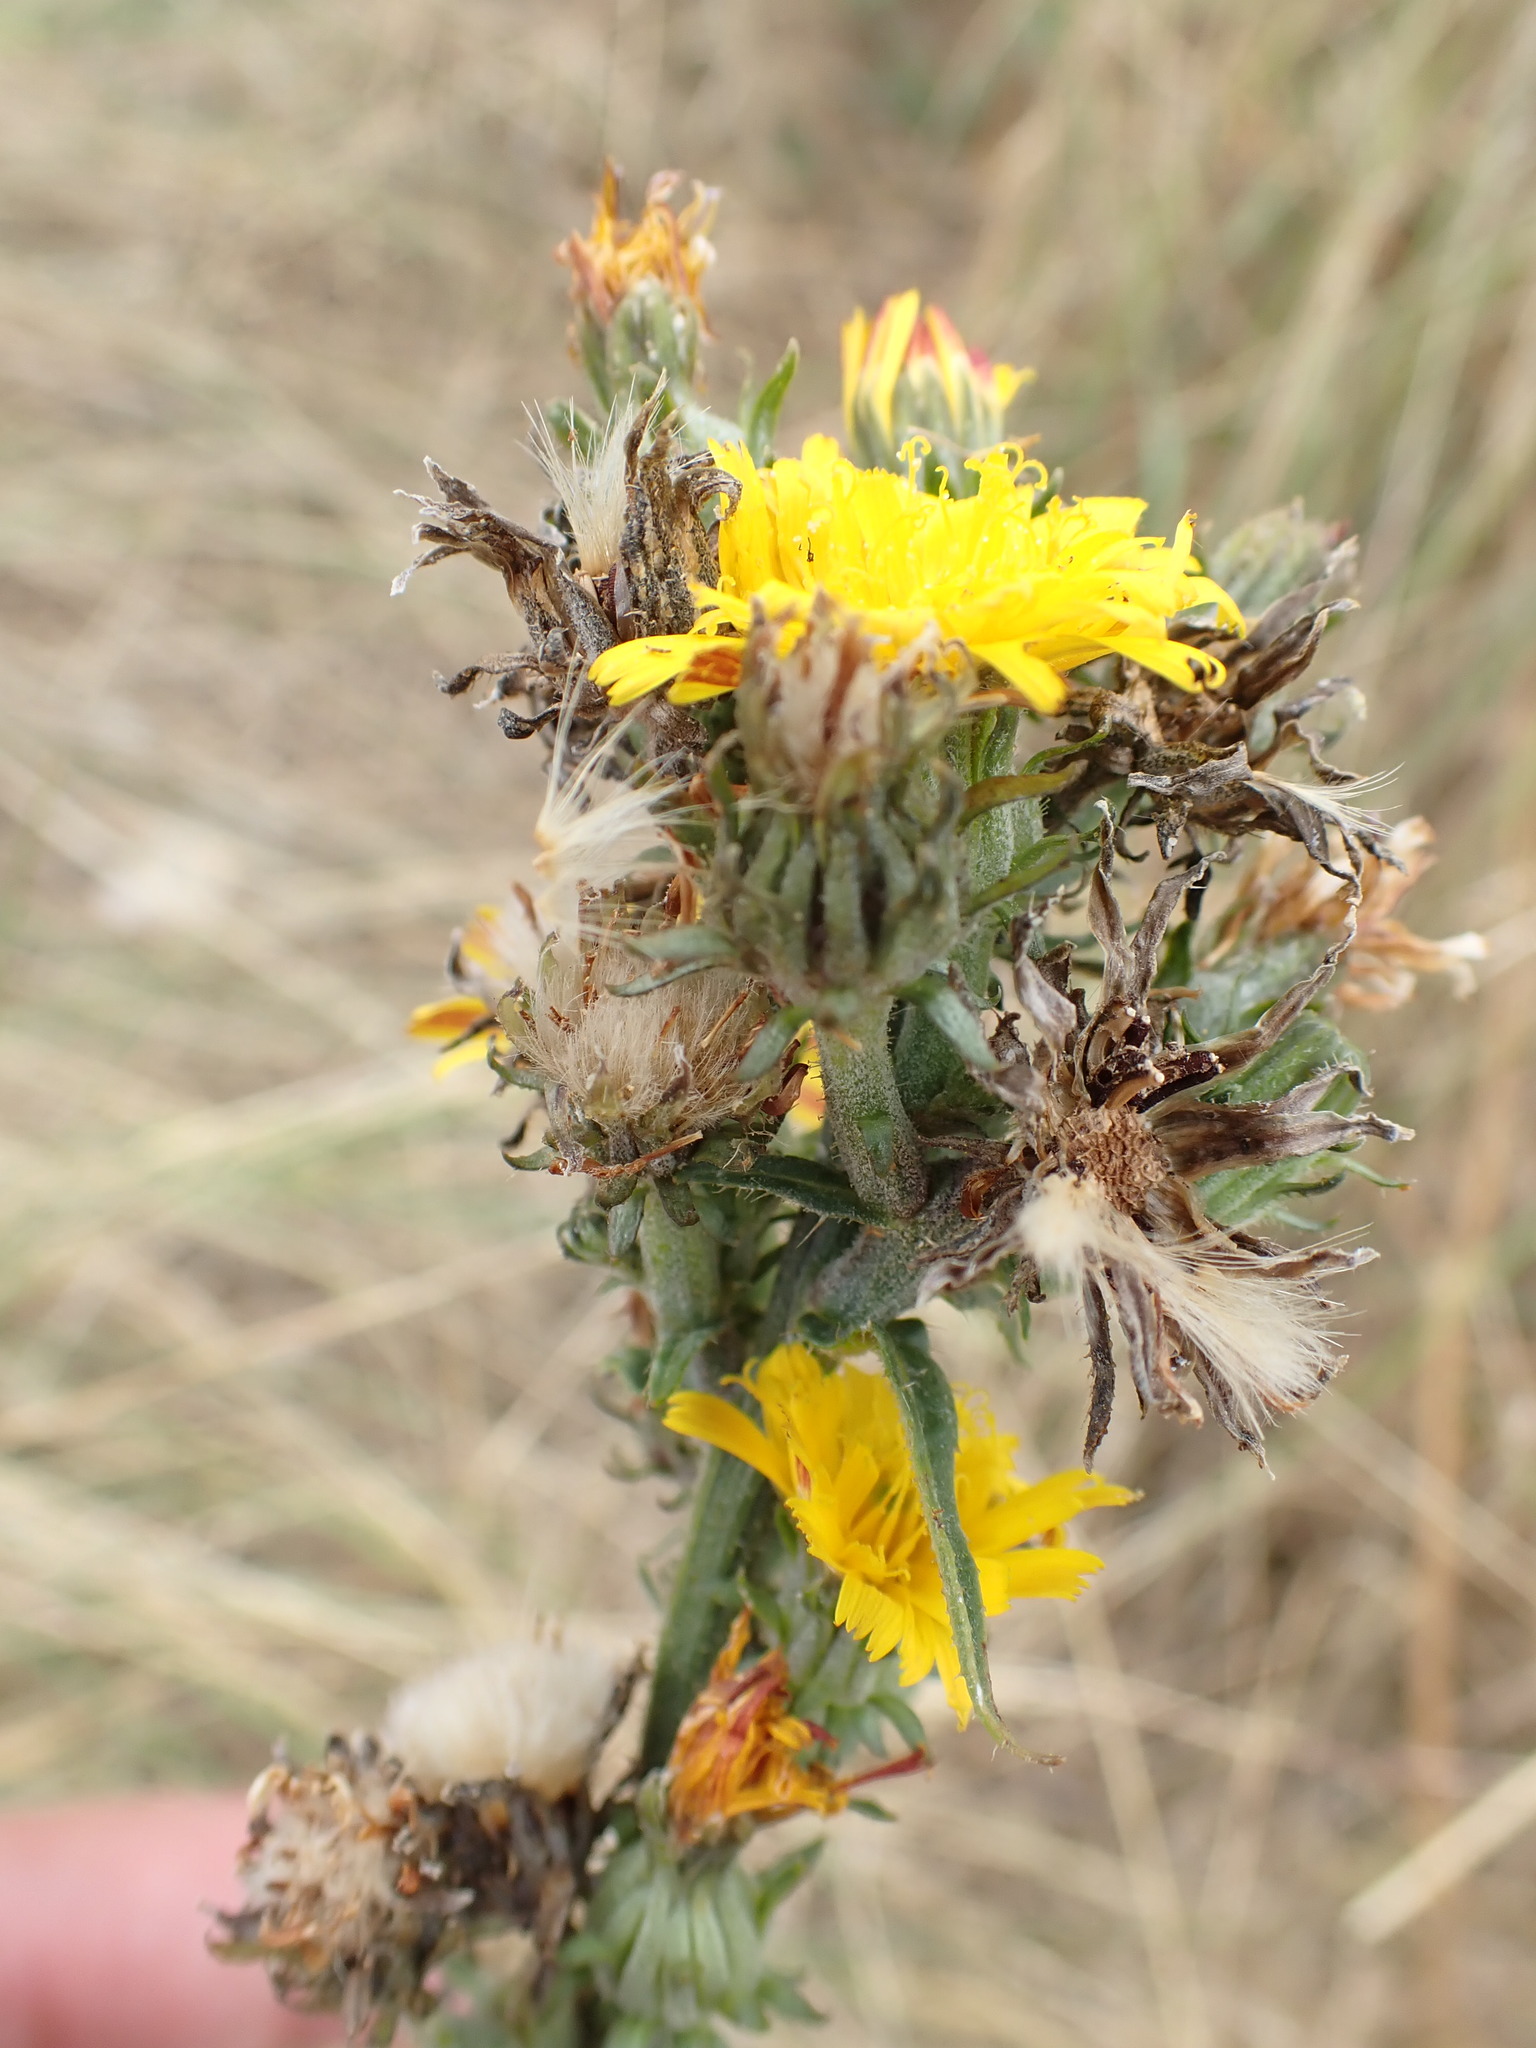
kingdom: Plantae
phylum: Tracheophyta
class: Magnoliopsida
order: Asterales
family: Asteraceae
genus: Picris
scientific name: Picris hieracioides
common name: Hawkweed oxtongue
